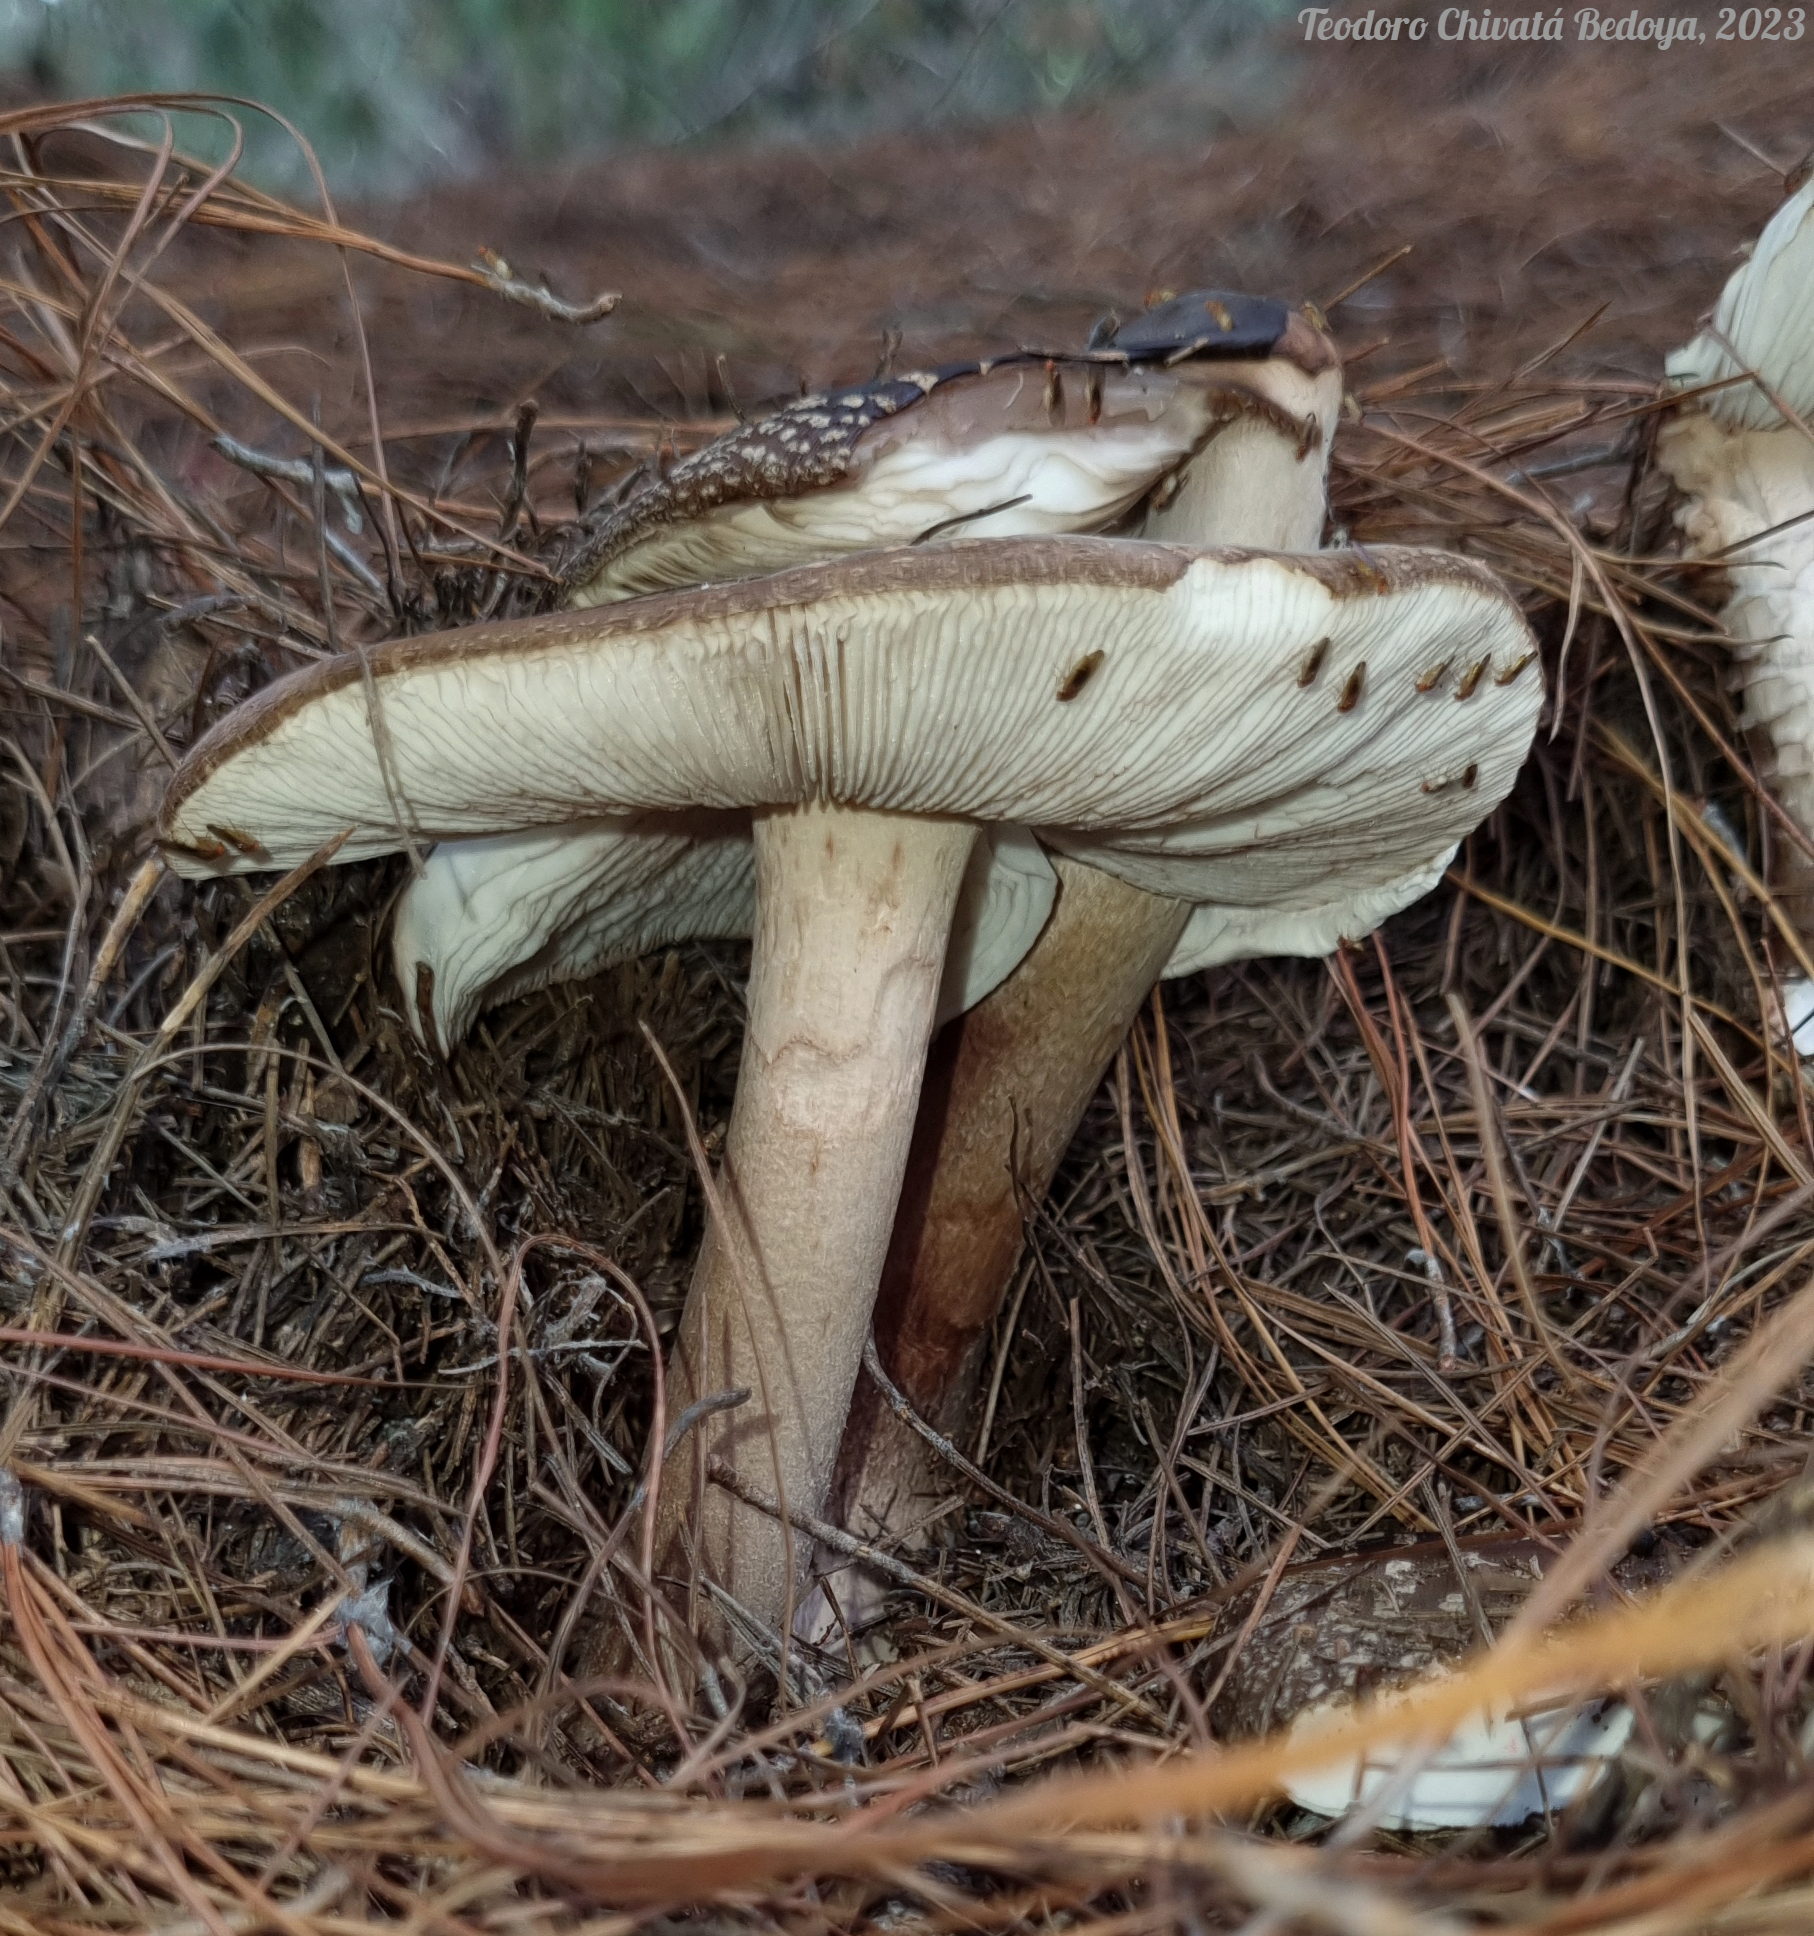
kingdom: Fungi
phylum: Basidiomycota
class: Agaricomycetes
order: Agaricales
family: Amanitaceae
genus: Amanita
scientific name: Amanita brunneolocularis
